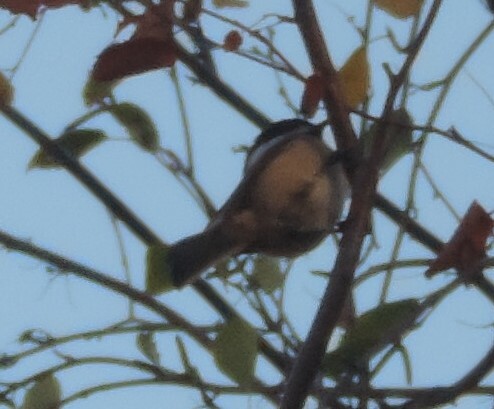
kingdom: Animalia
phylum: Chordata
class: Aves
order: Passeriformes
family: Paridae
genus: Poecile
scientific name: Poecile atricapillus
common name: Black-capped chickadee
